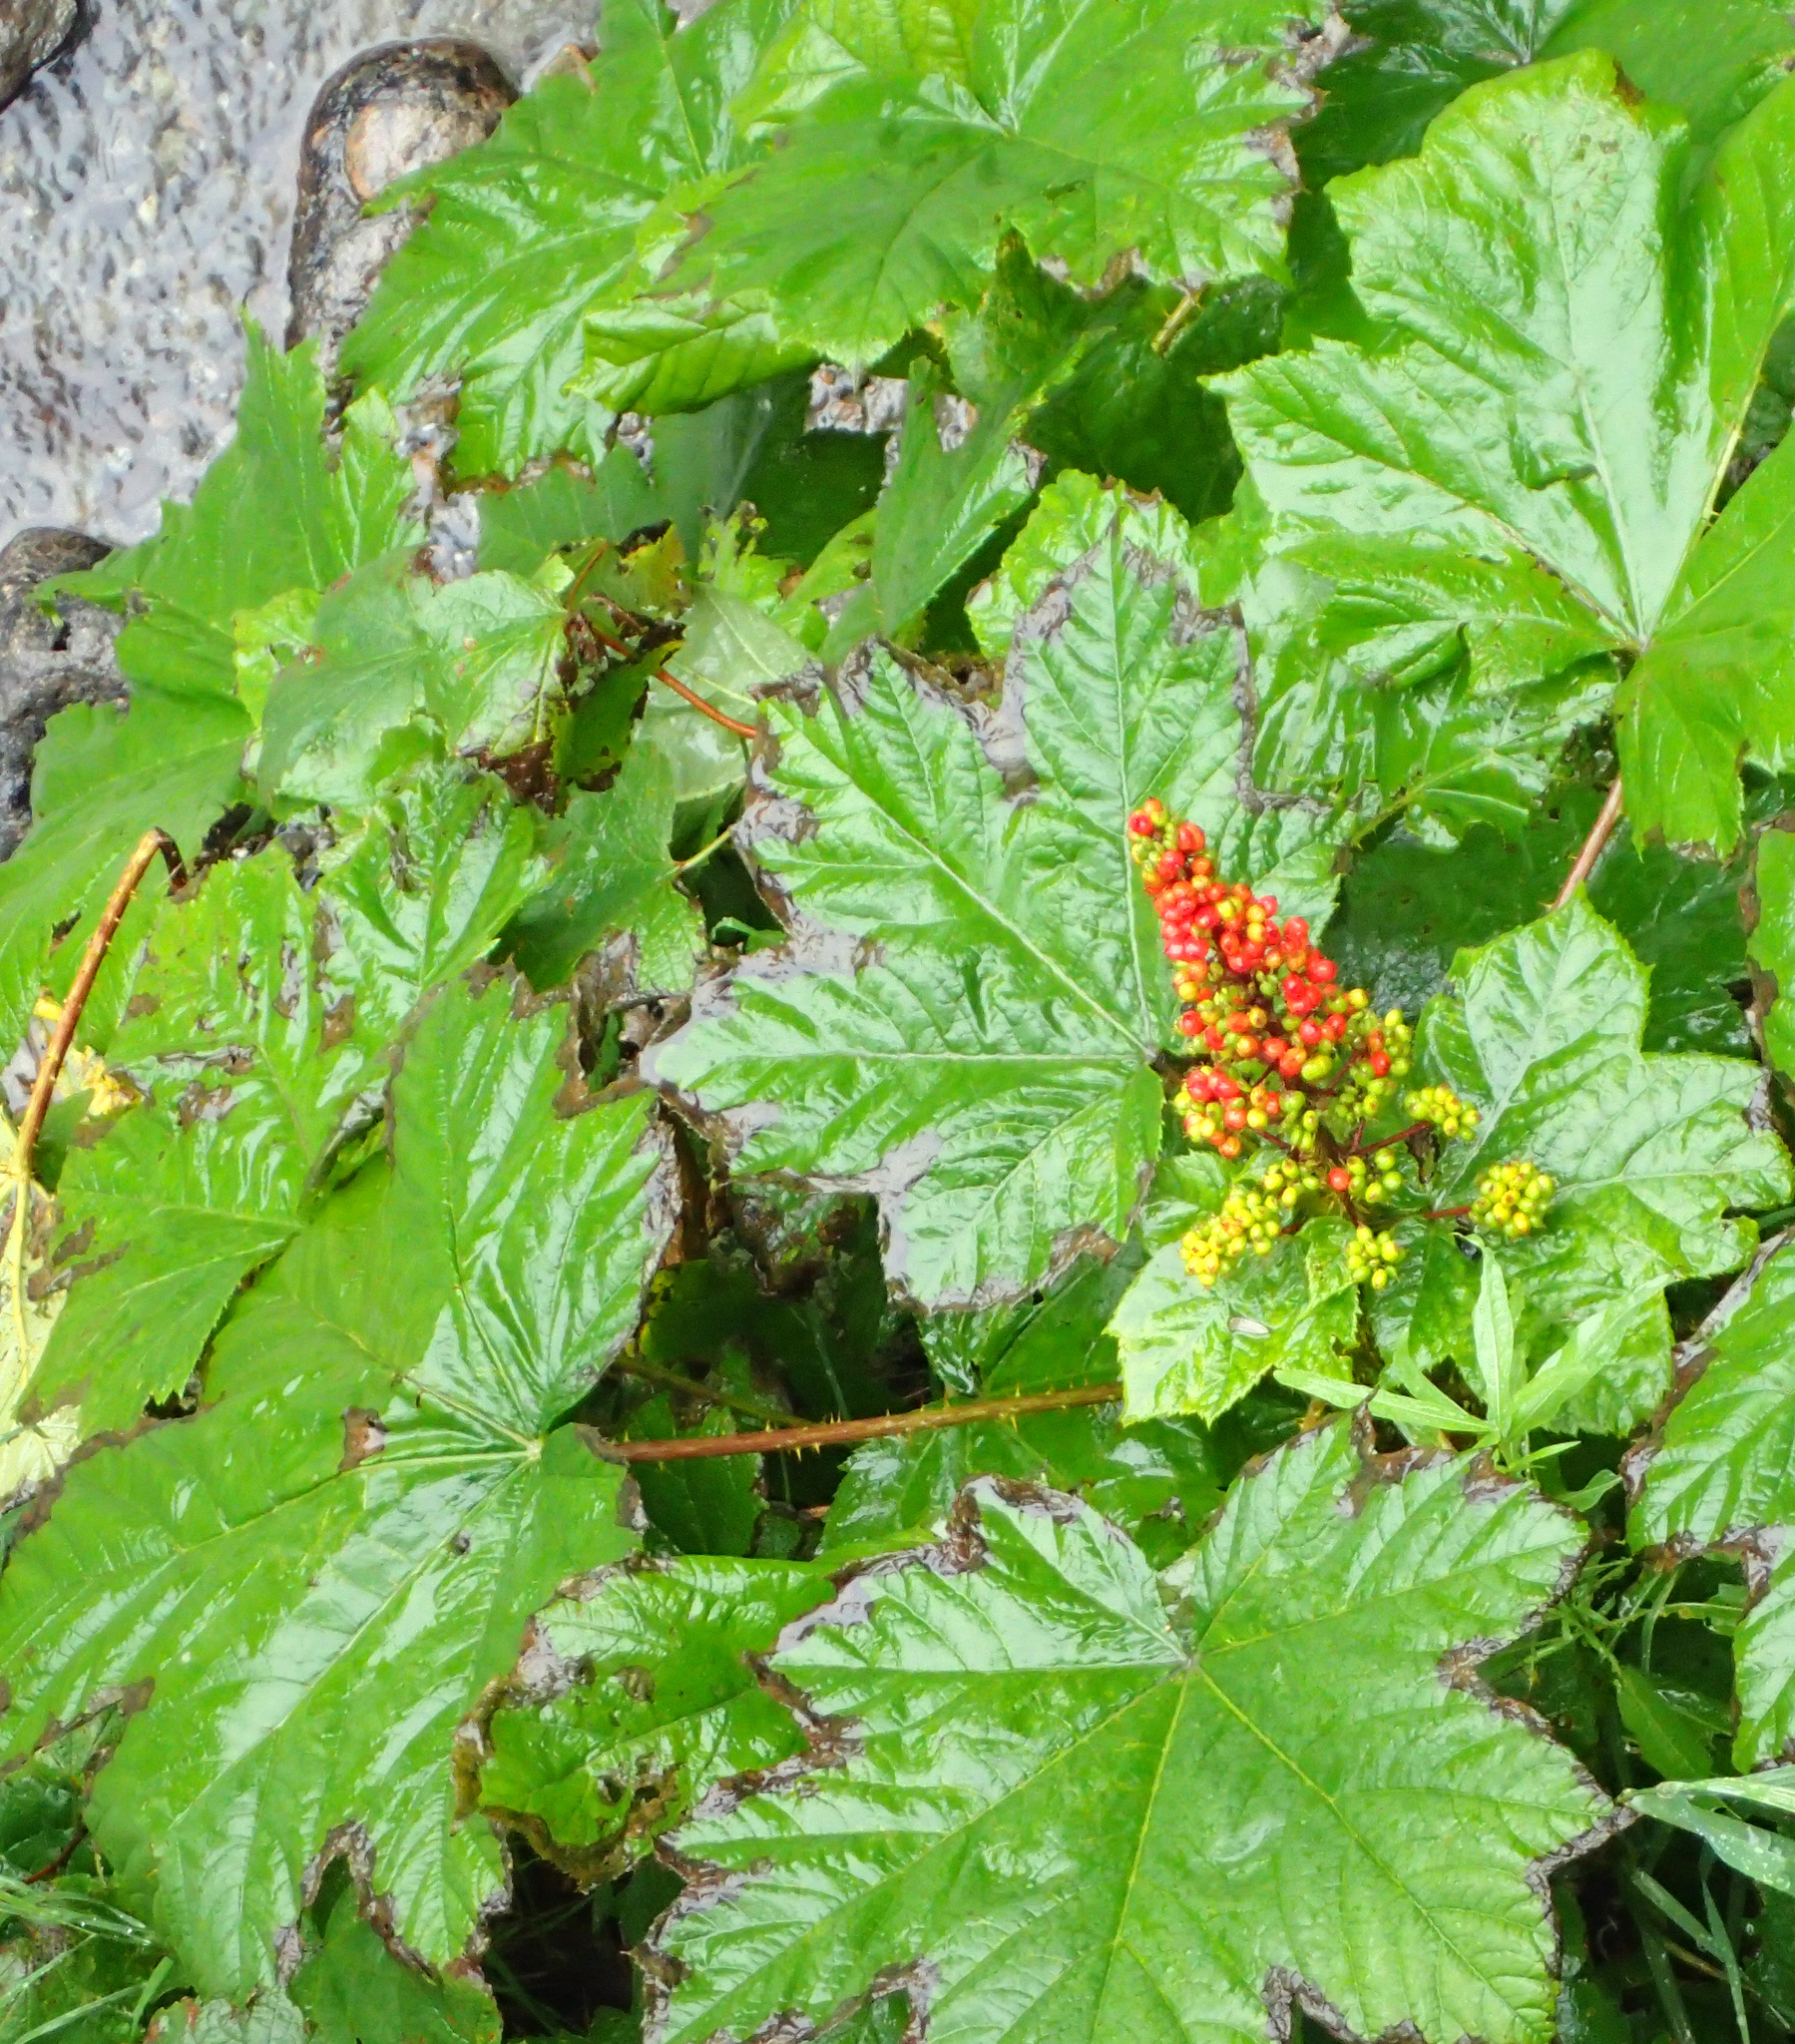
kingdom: Plantae
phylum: Tracheophyta
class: Magnoliopsida
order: Apiales
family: Araliaceae
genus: Oplopanax
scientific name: Oplopanax horridus
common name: Devil's walking-stick
